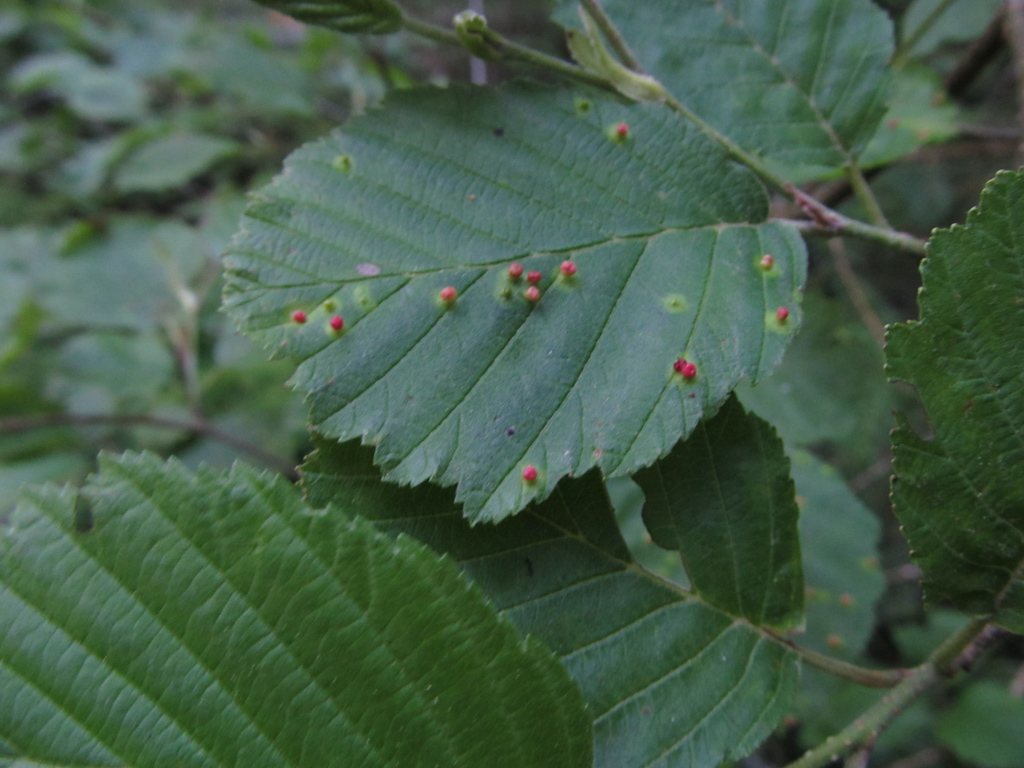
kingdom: Plantae
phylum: Tracheophyta
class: Magnoliopsida
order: Fagales
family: Betulaceae
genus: Alnus
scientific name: Alnus incana
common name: Grey alder
